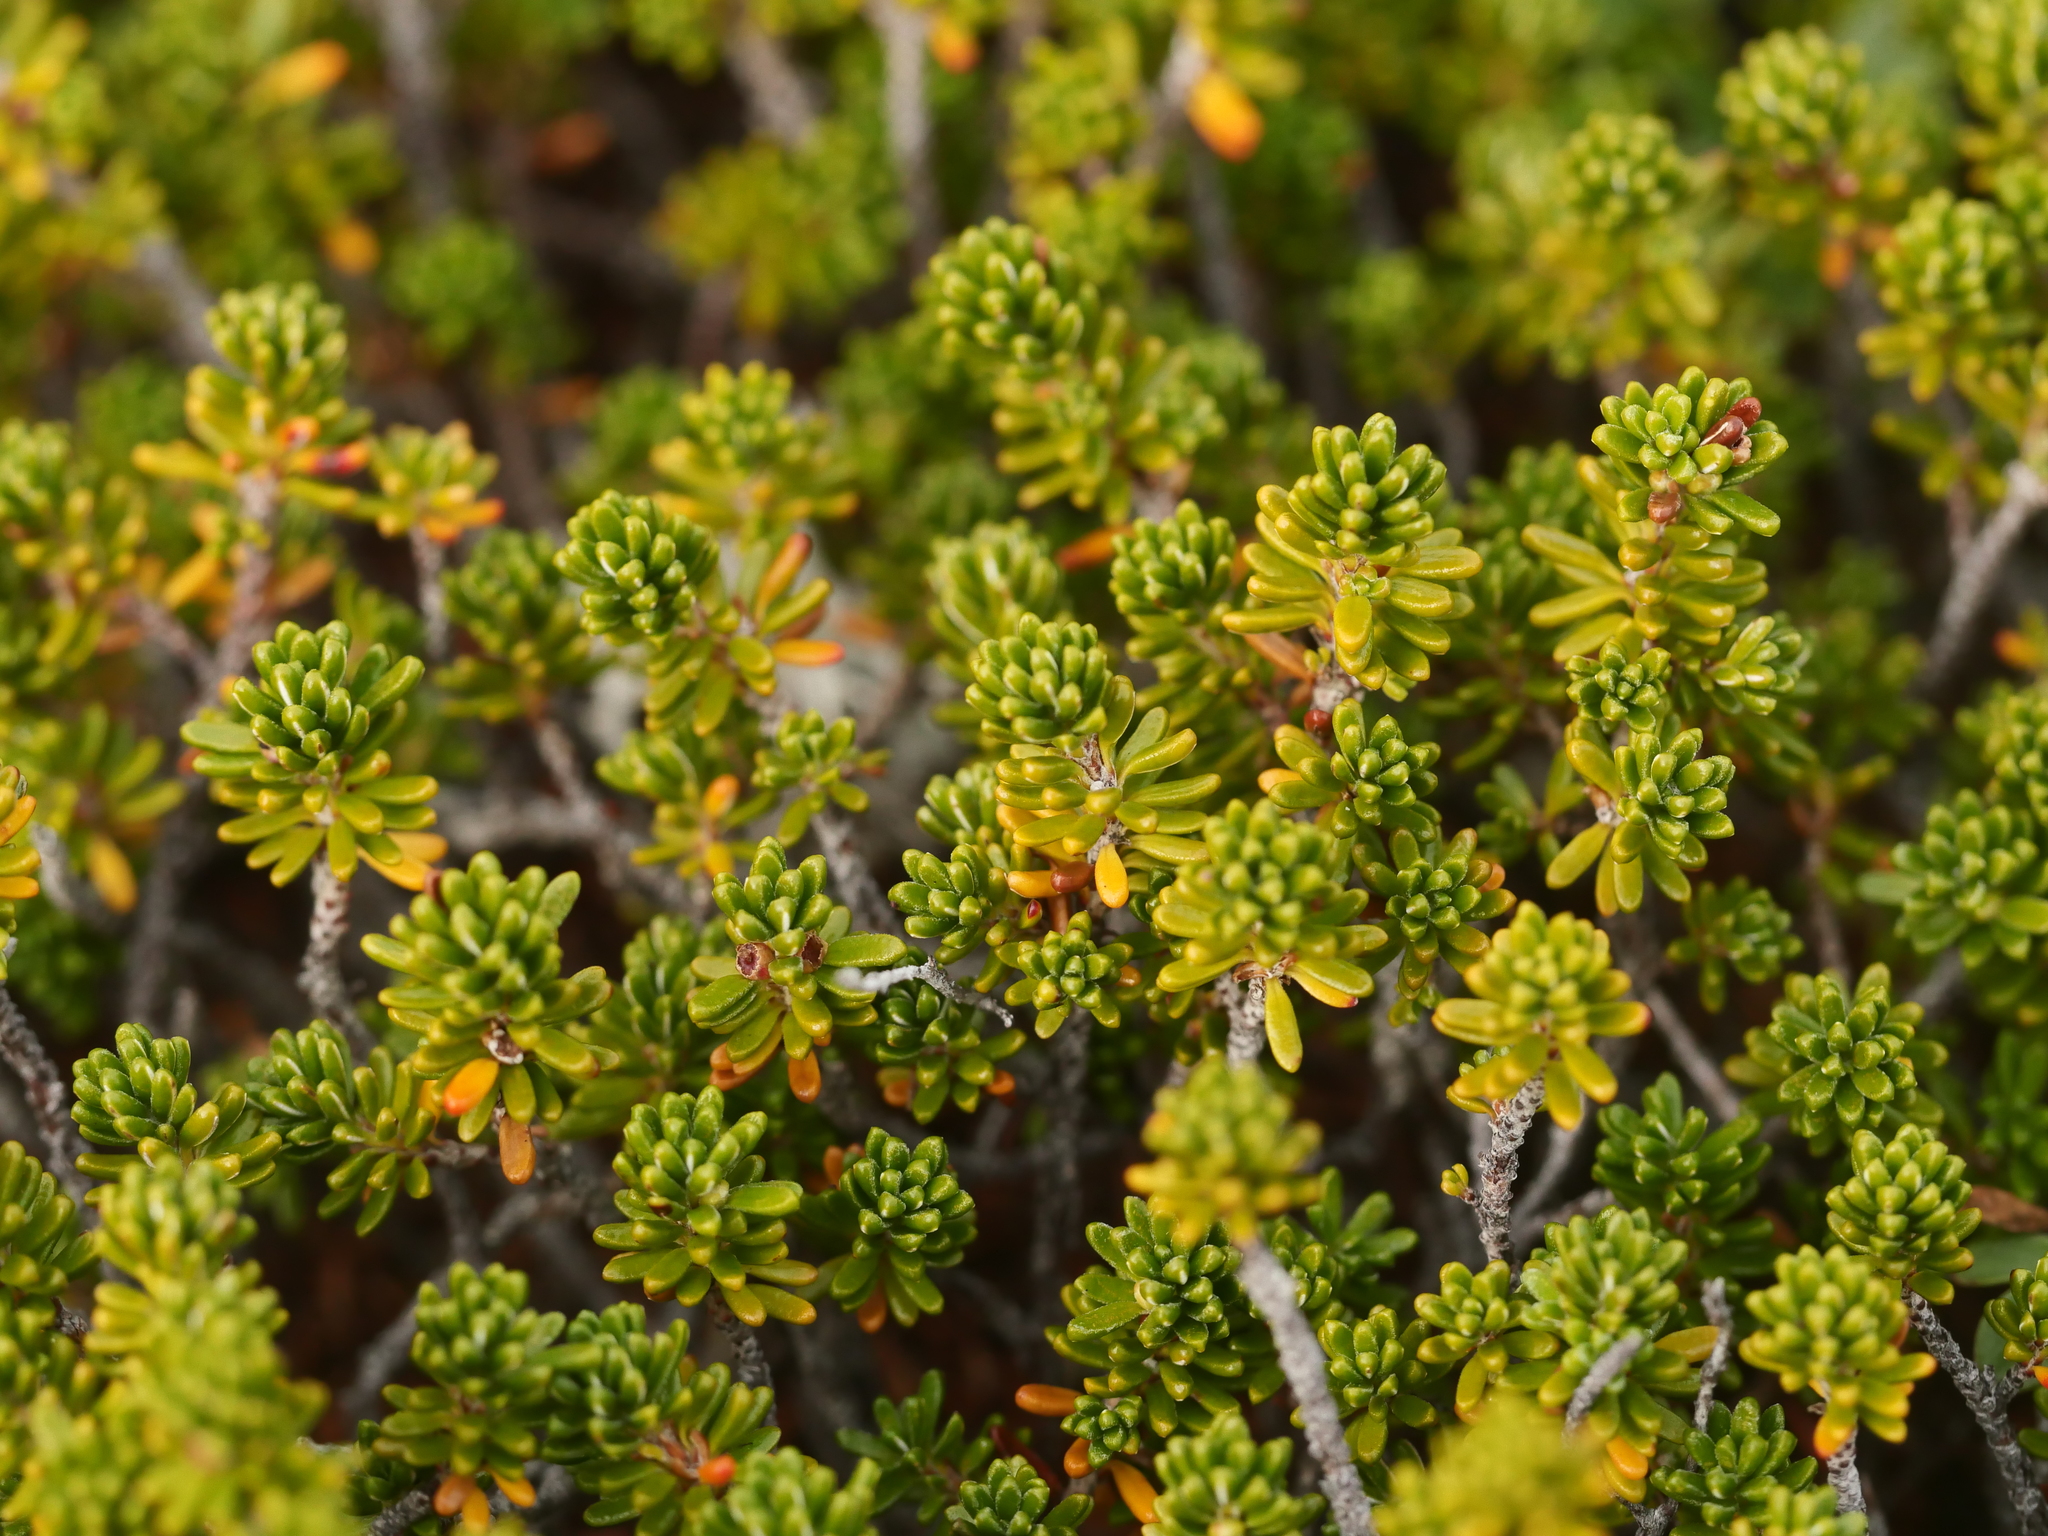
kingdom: Plantae
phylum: Tracheophyta
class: Magnoliopsida
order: Ericales
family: Ericaceae
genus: Empetrum
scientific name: Empetrum nigrum
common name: Black crowberry
